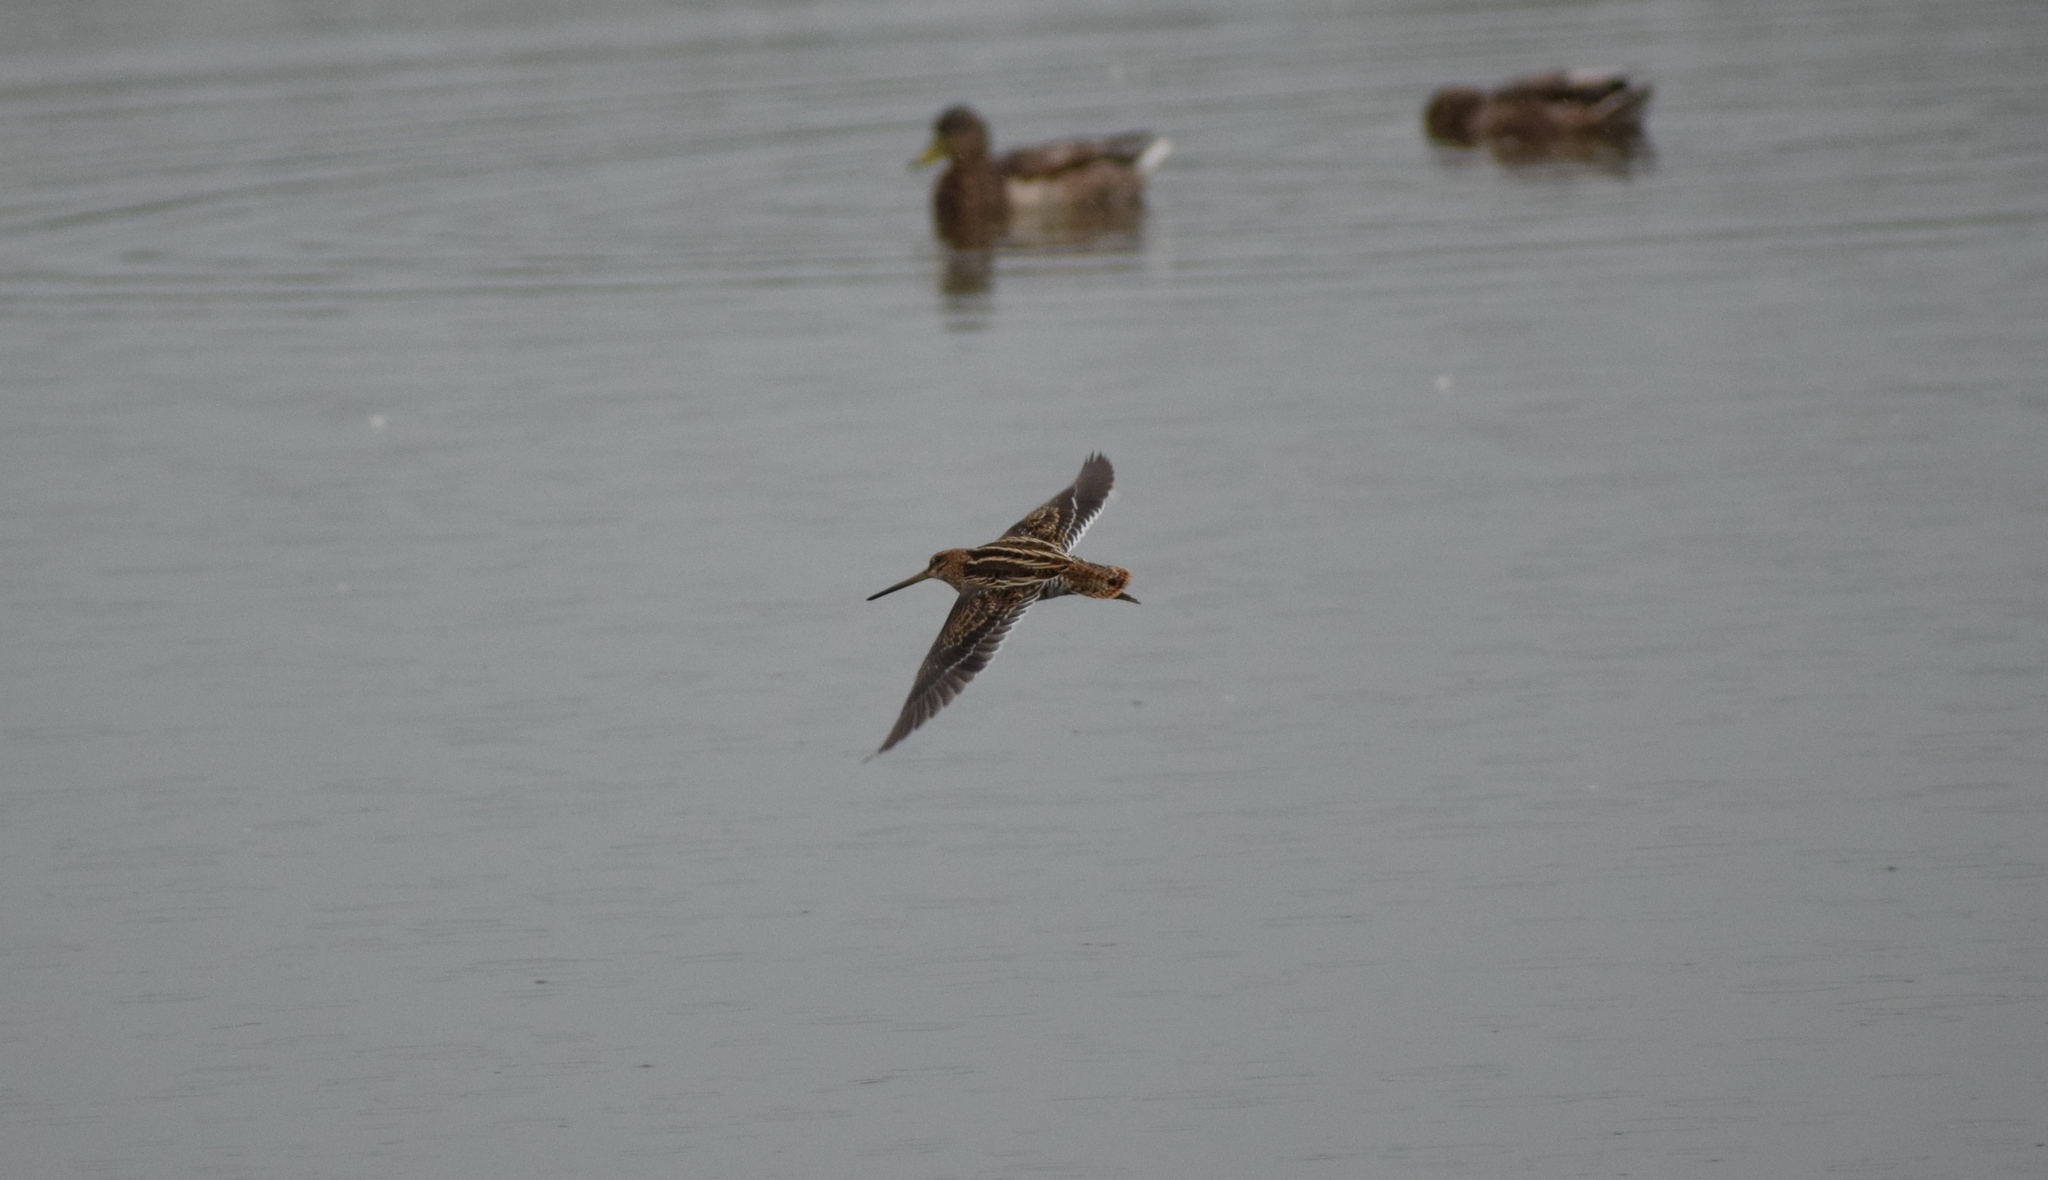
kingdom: Animalia
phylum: Chordata
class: Aves
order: Charadriiformes
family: Scolopacidae
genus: Gallinago
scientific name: Gallinago gallinago
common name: Common snipe
